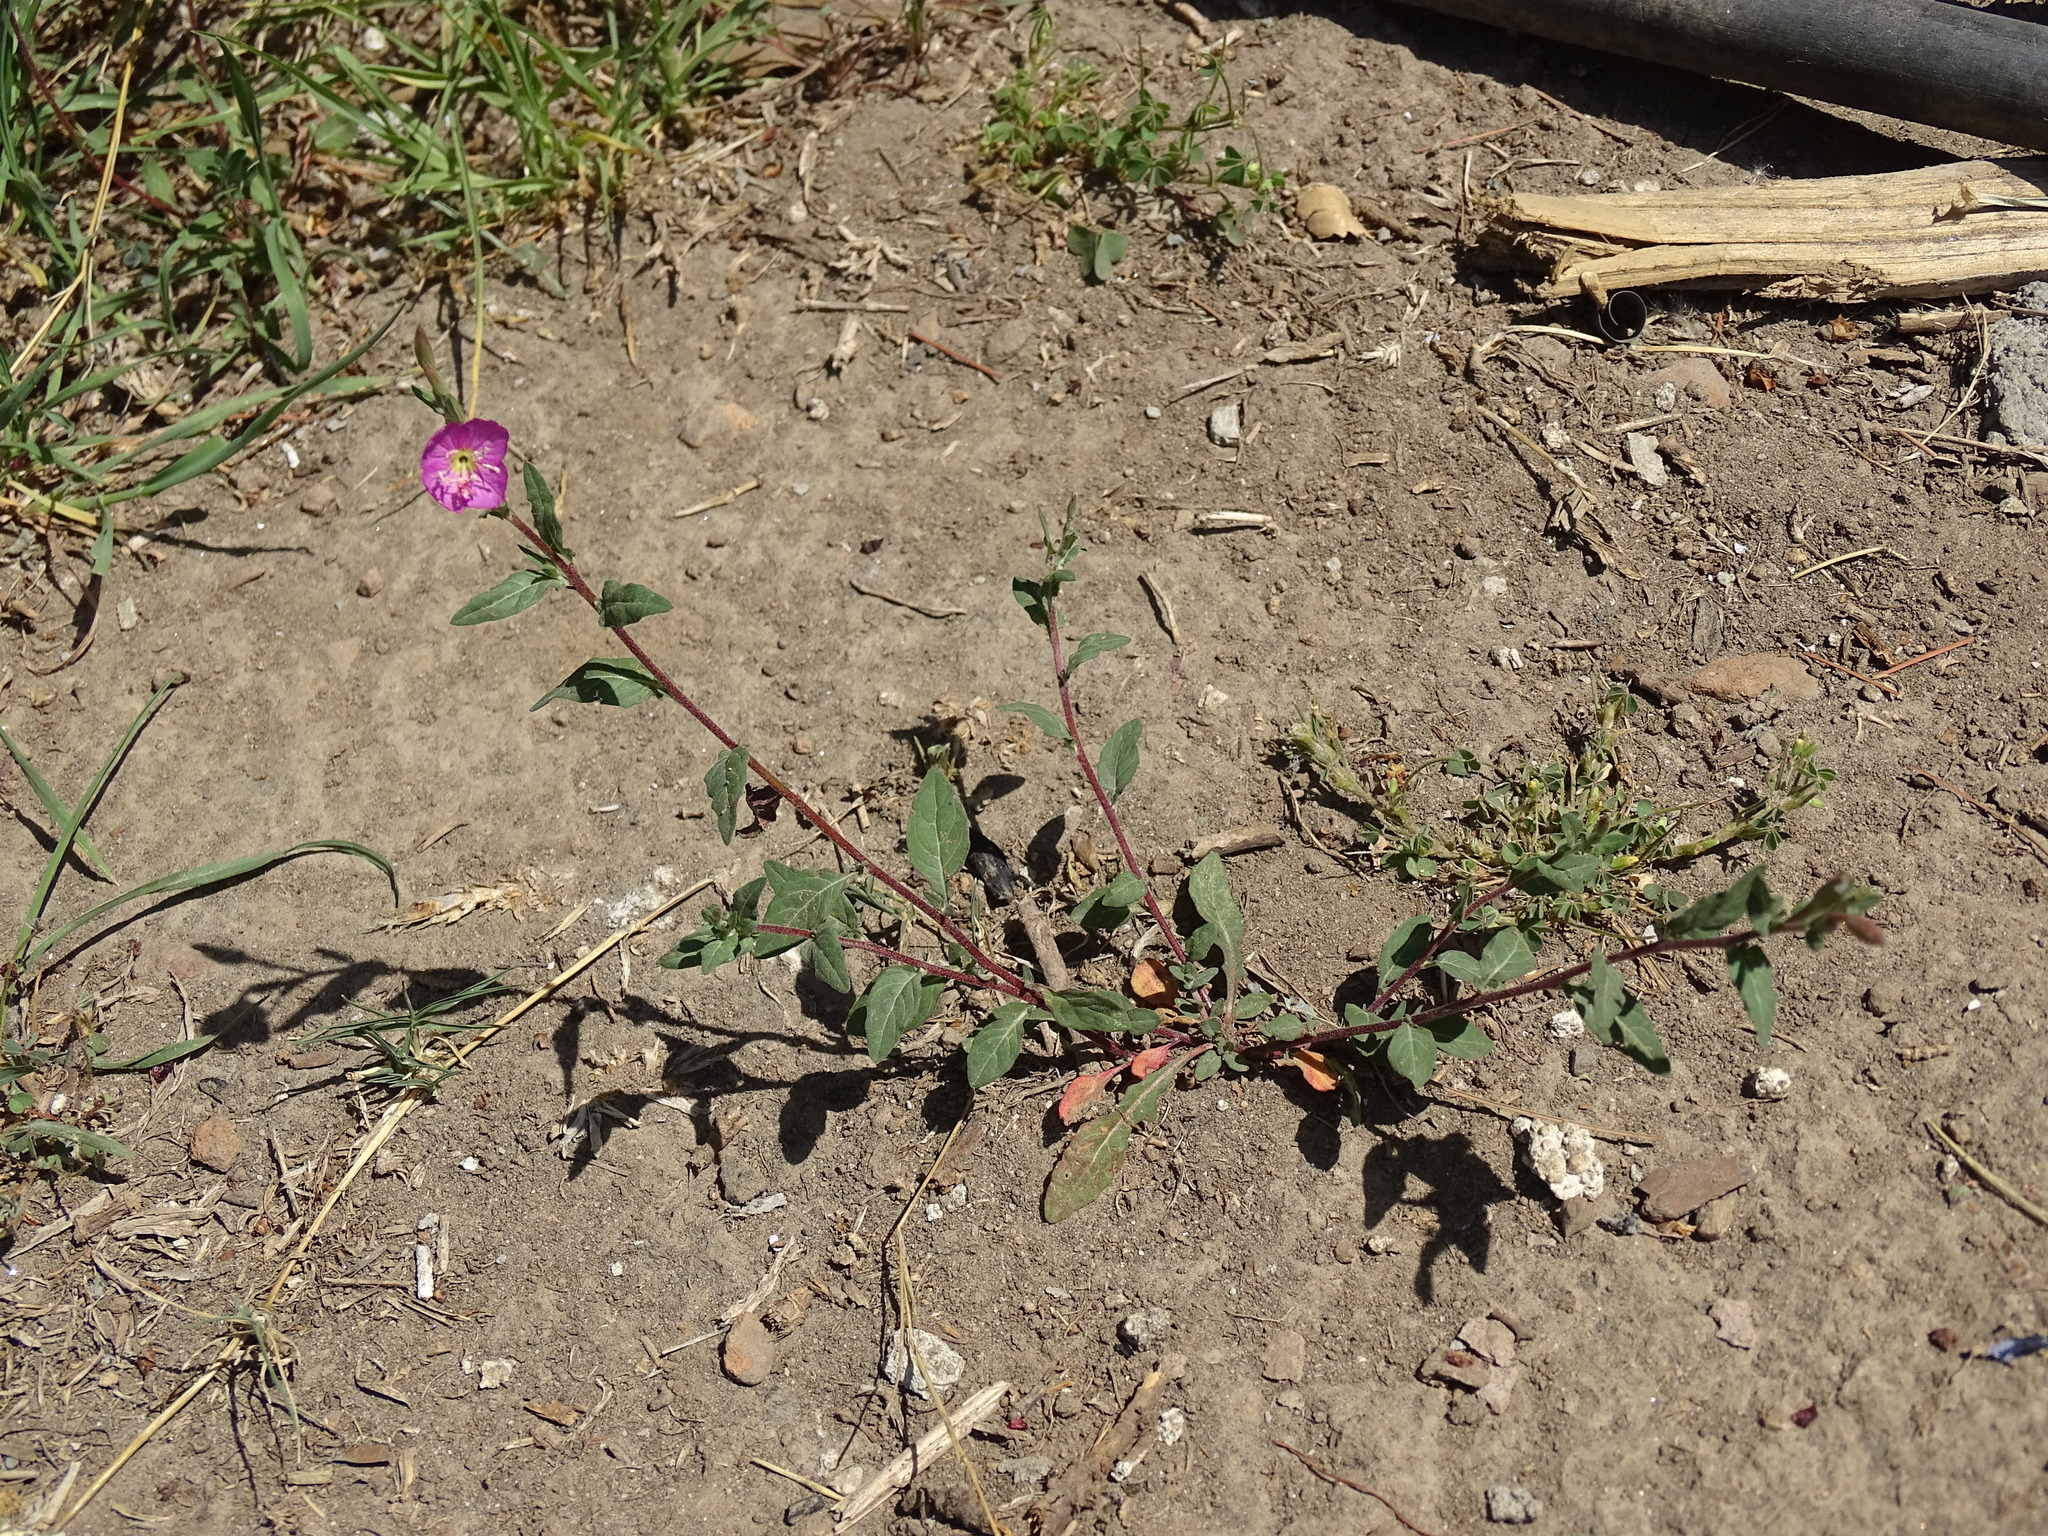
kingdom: Plantae
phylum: Tracheophyta
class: Magnoliopsida
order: Myrtales
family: Onagraceae
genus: Oenothera
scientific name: Oenothera rosea
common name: Rosy evening-primrose
